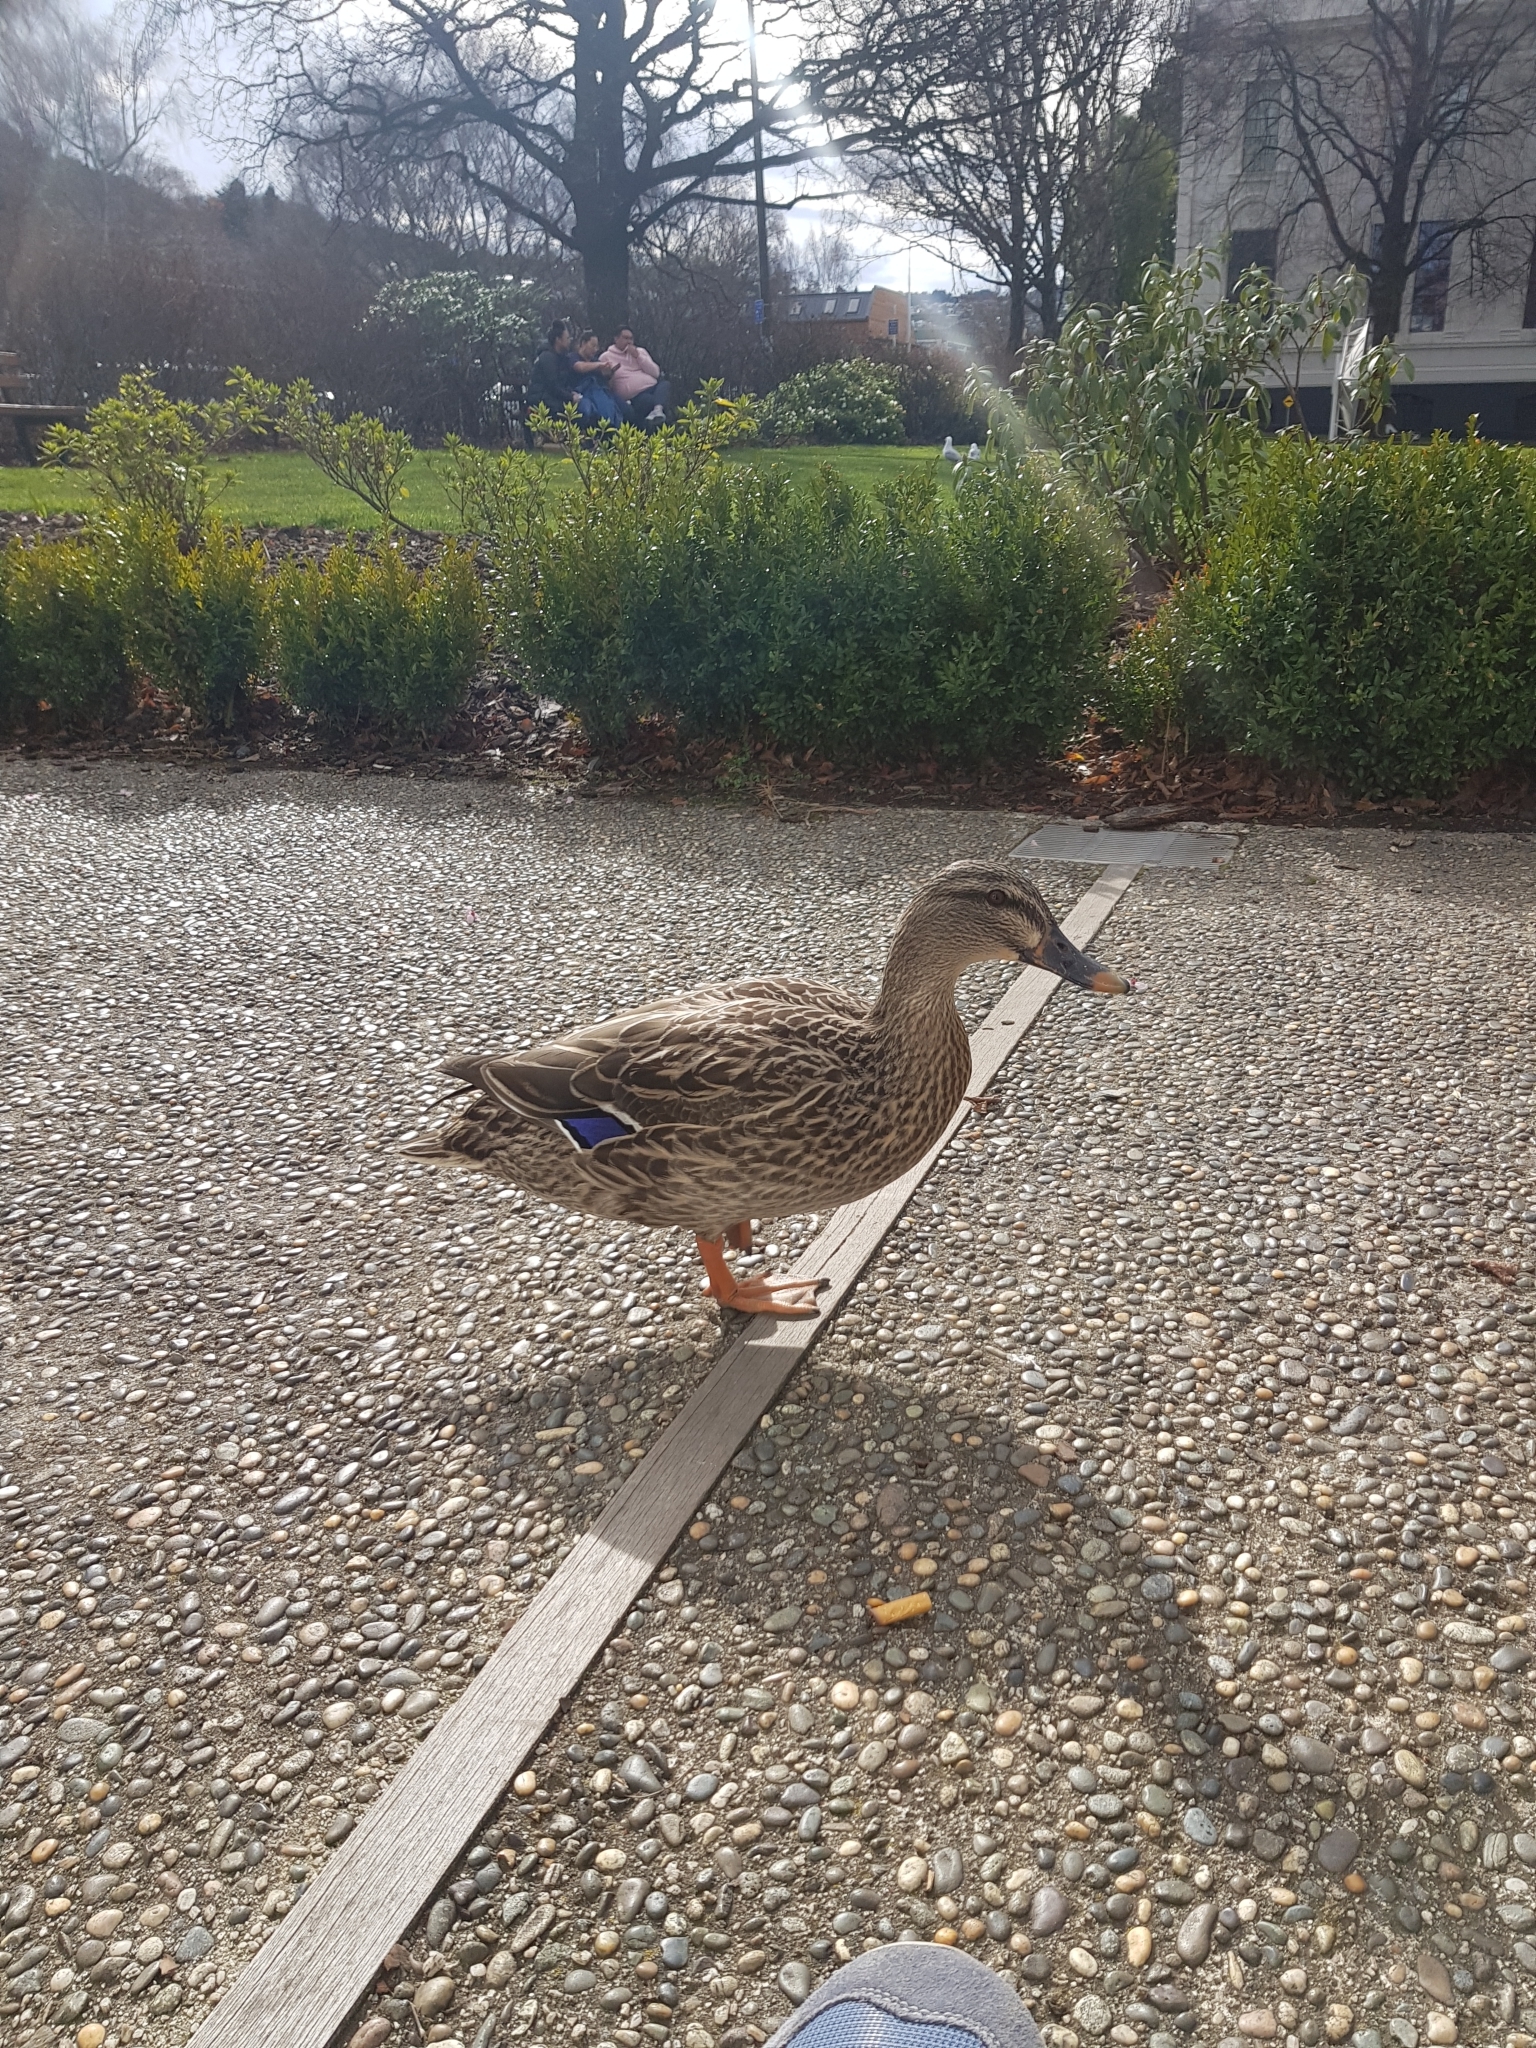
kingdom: Animalia
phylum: Chordata
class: Aves
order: Anseriformes
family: Anatidae
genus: Anas
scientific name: Anas platyrhynchos
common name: Mallard
